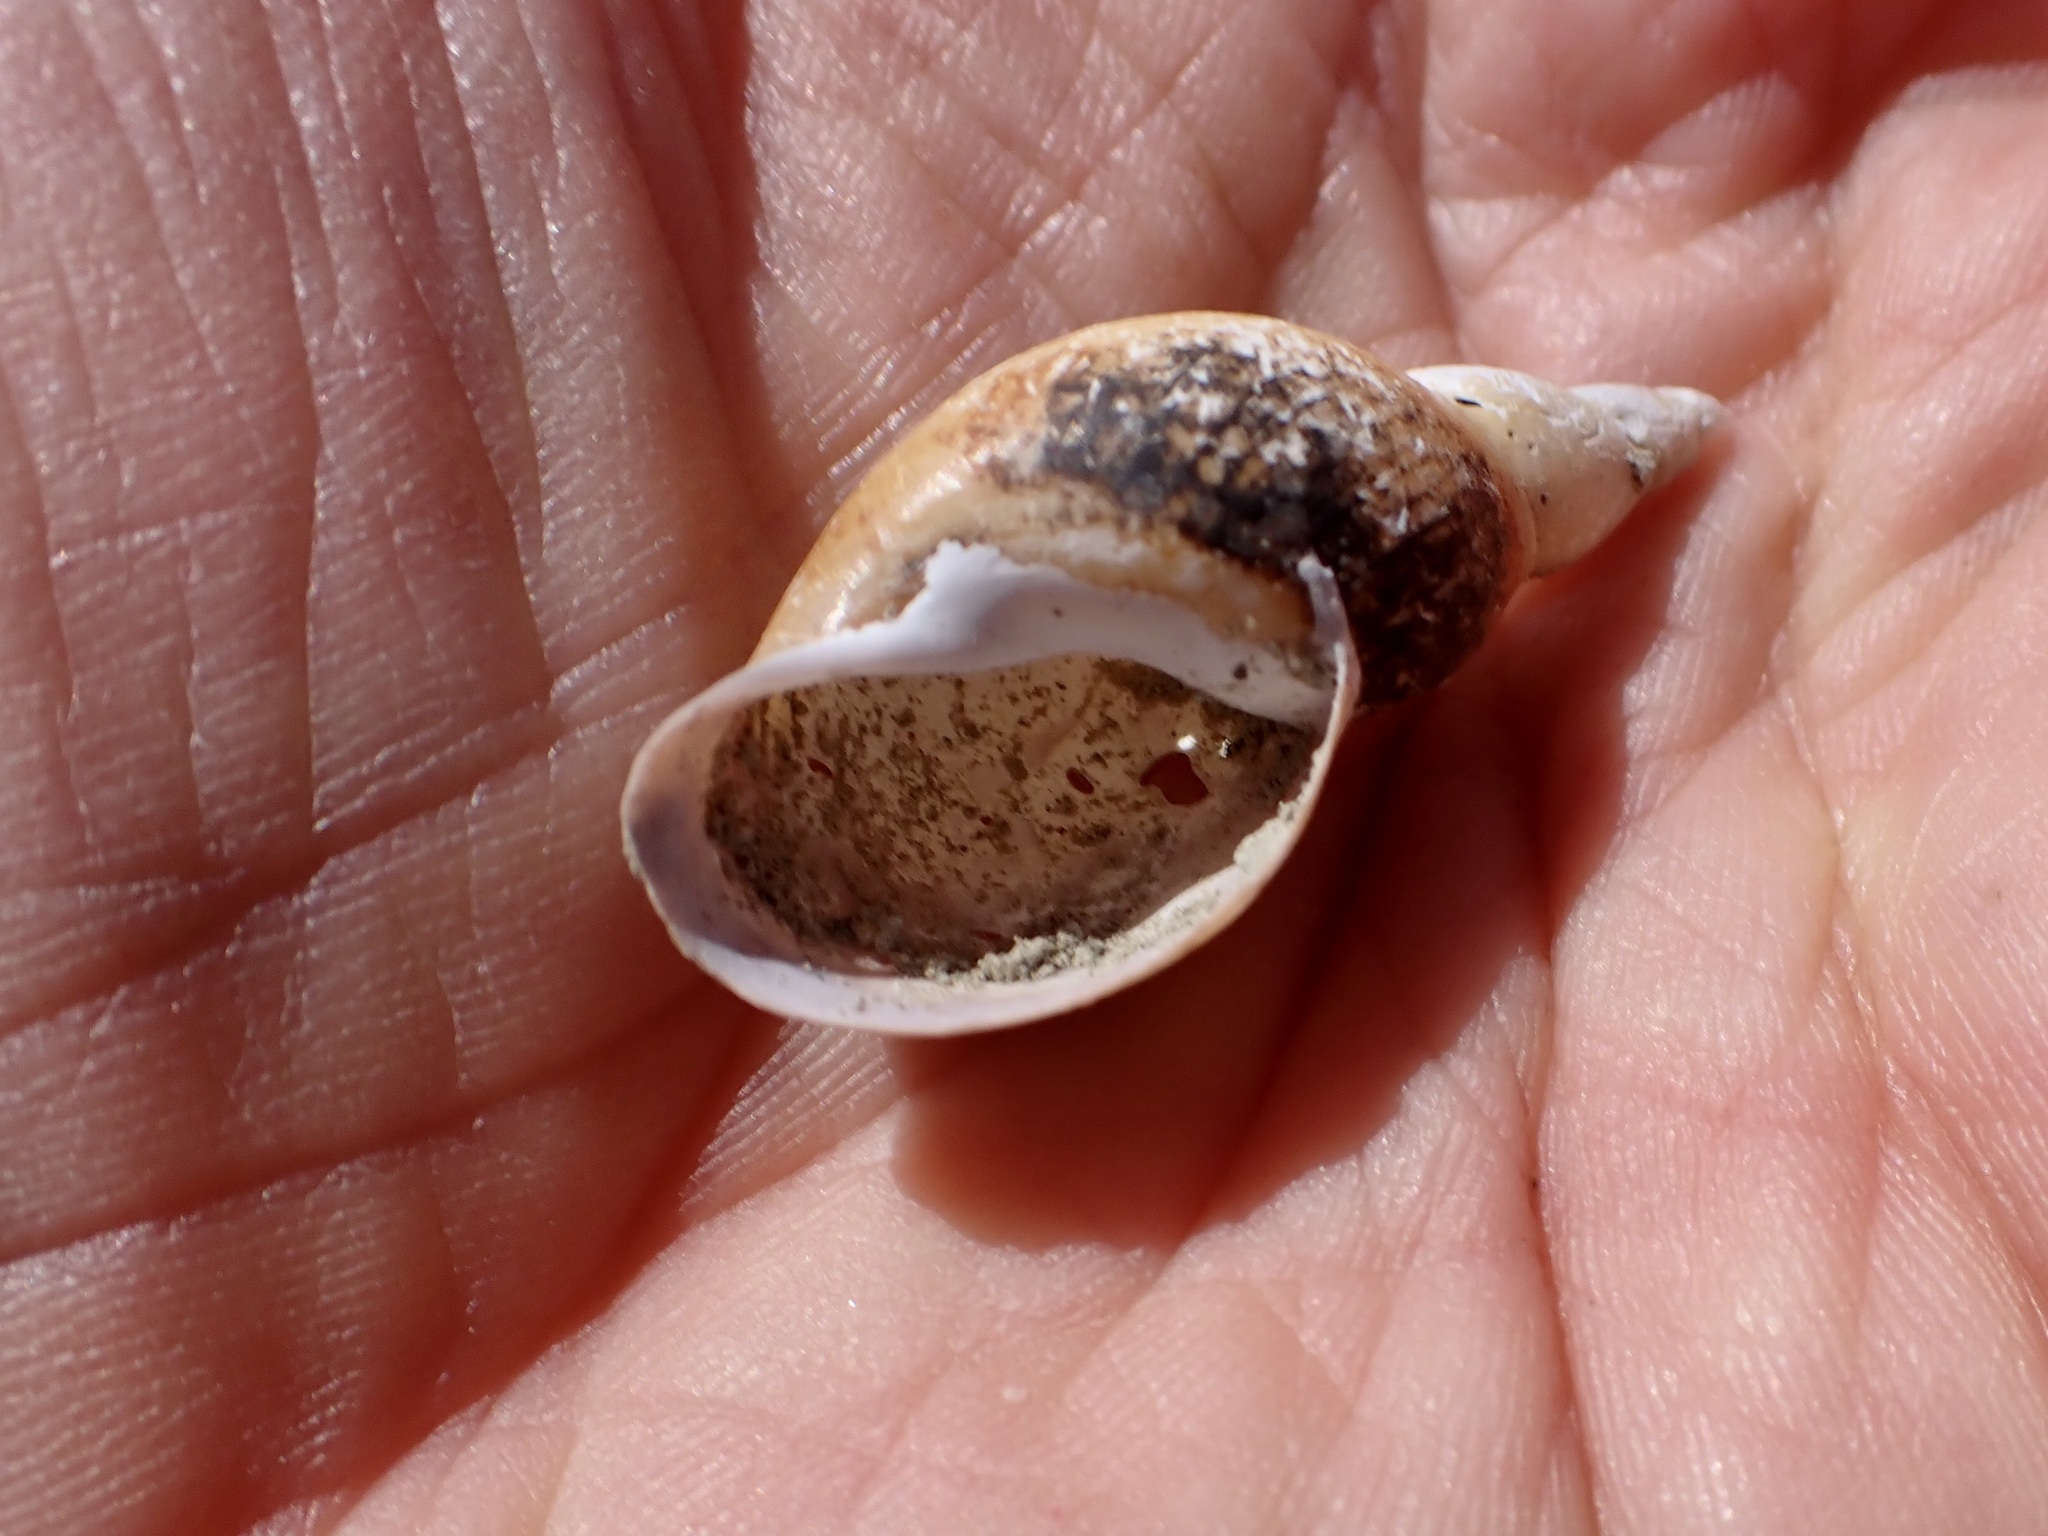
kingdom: Animalia
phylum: Mollusca
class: Gastropoda
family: Lymnaeidae
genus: Lymnaea
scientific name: Lymnaea stagnalis
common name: Great pond snail
